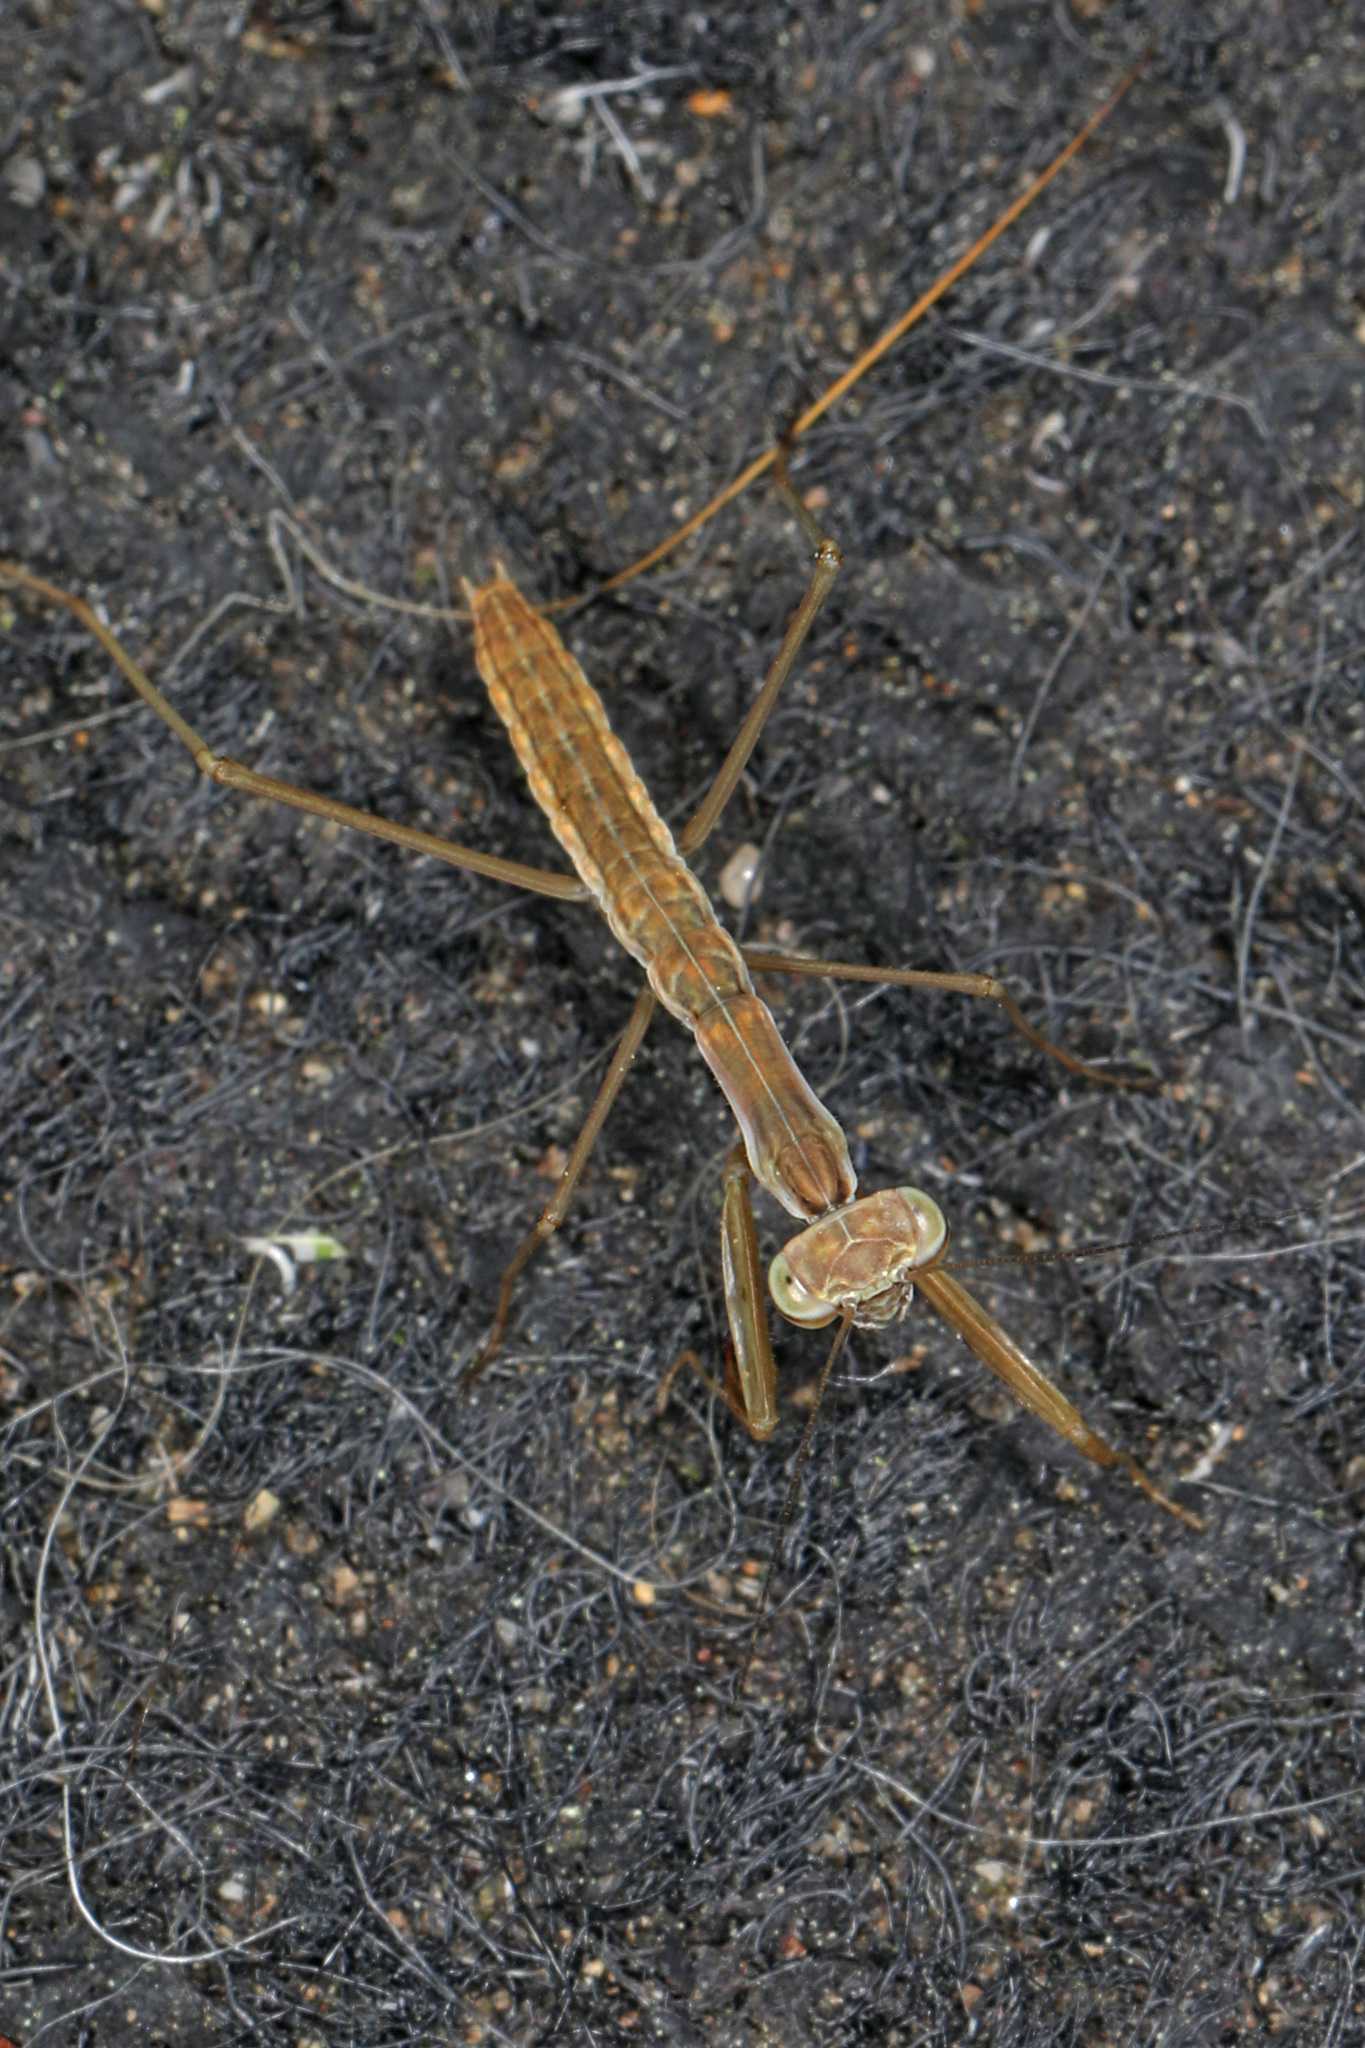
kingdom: Animalia
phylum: Arthropoda
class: Insecta
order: Mantodea
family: Mantidae
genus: Tenodera
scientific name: Tenodera sinensis
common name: Chinese mantis
